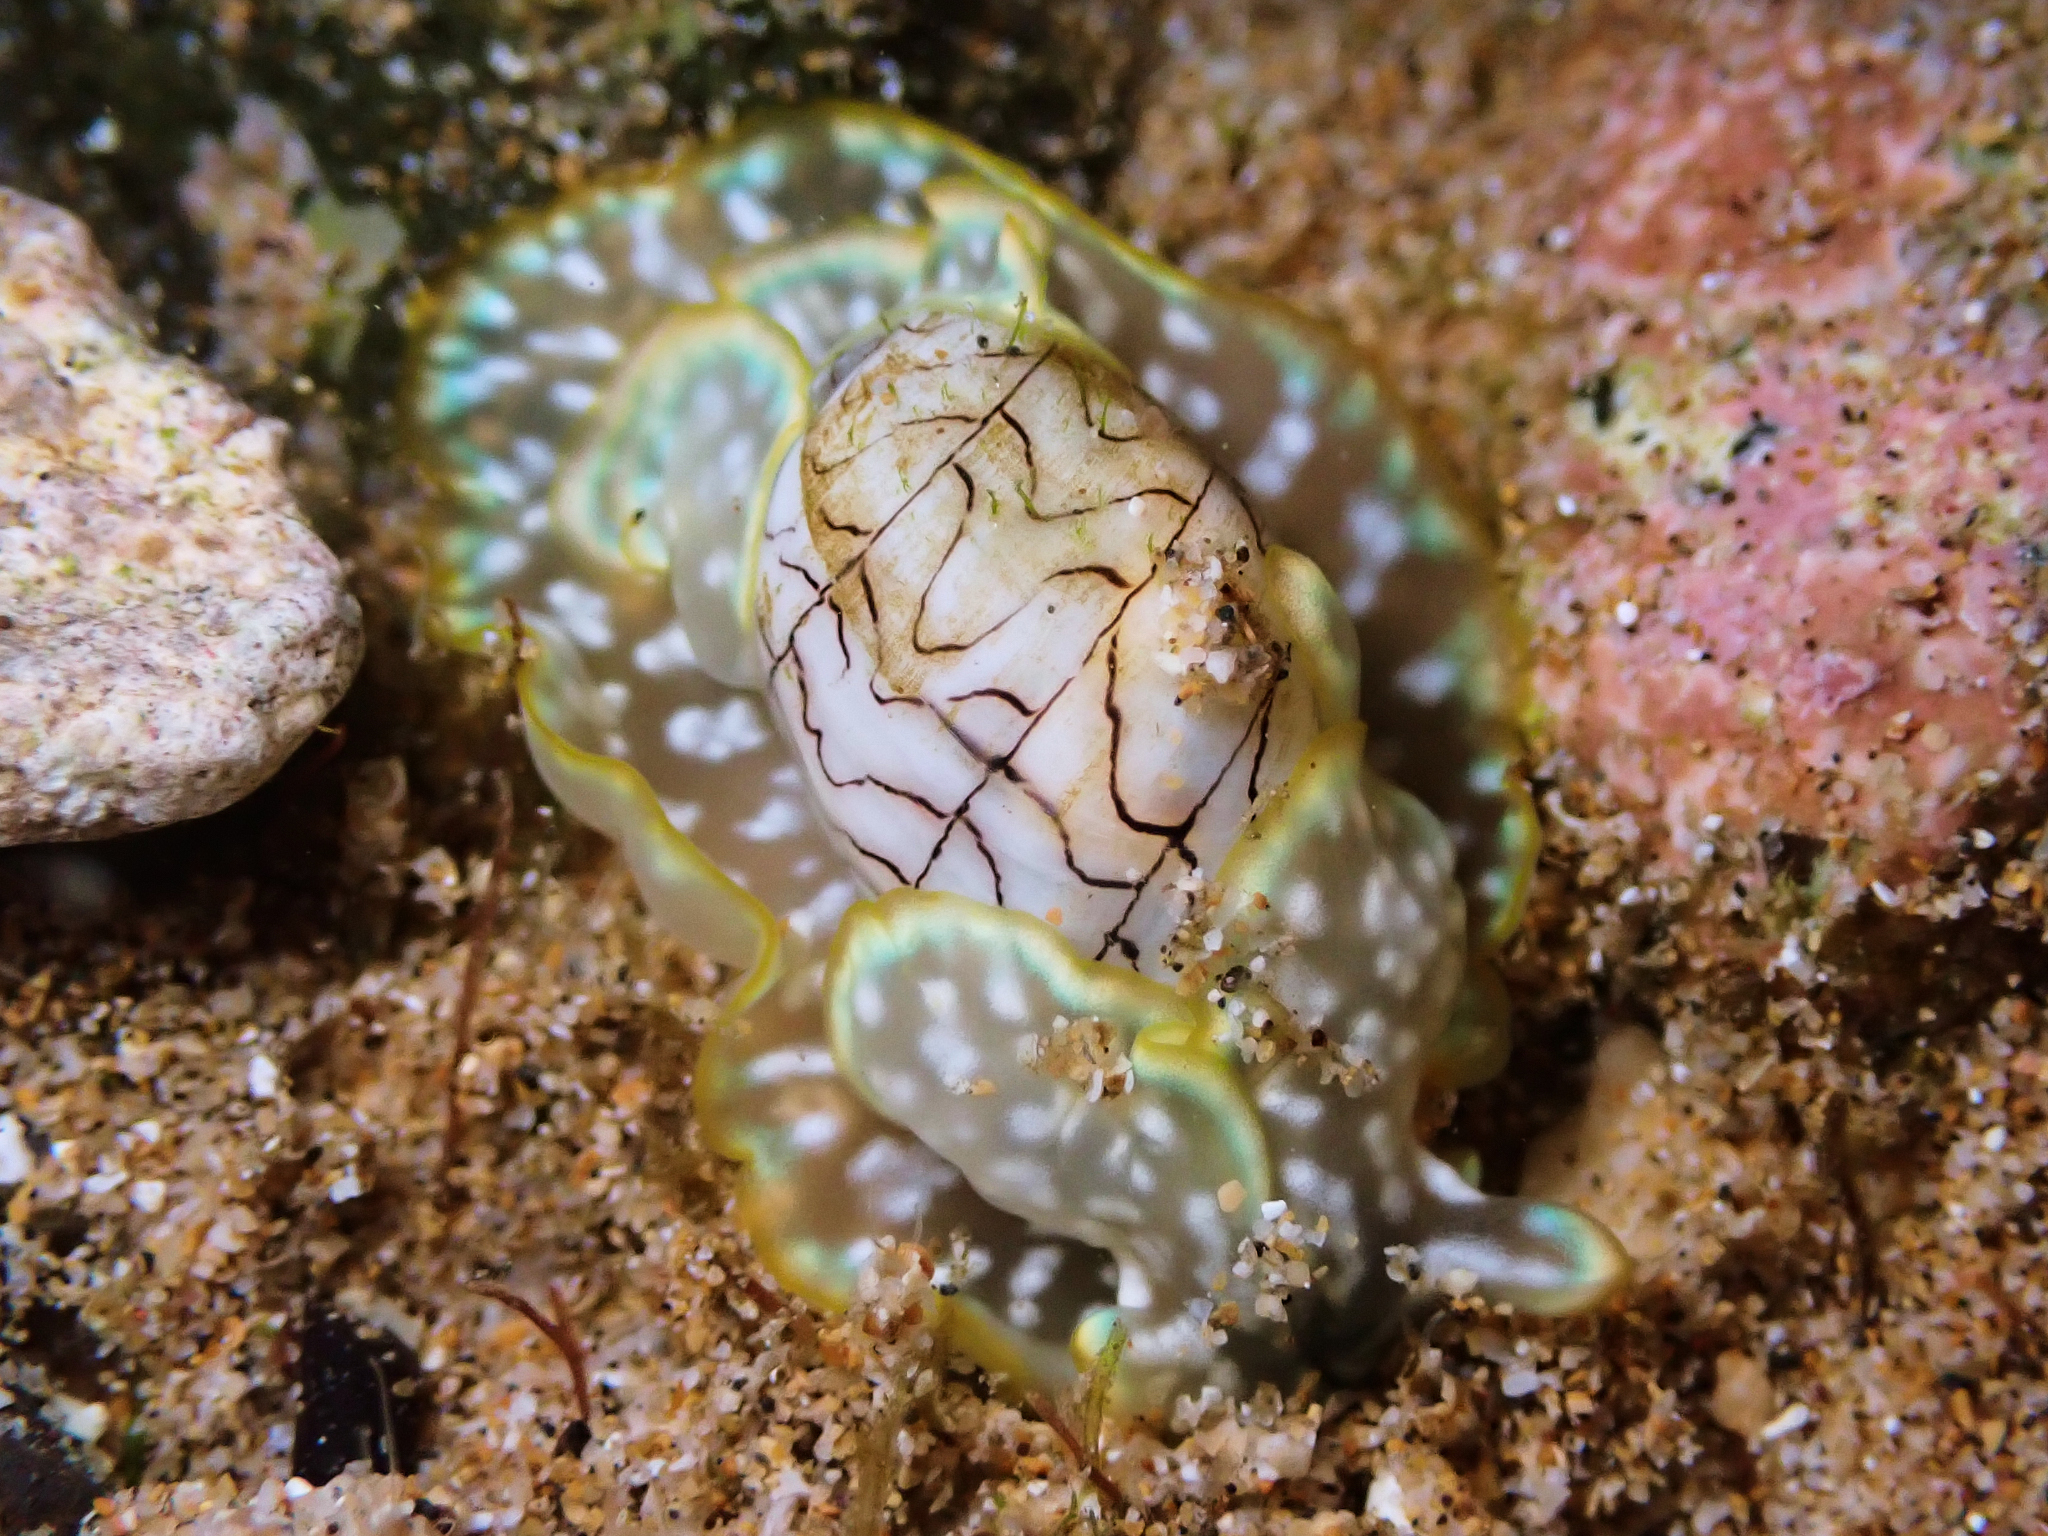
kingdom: Animalia
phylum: Mollusca
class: Gastropoda
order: Cephalaspidea
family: Aplustridae
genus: Micromelo
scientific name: Micromelo scriptus
